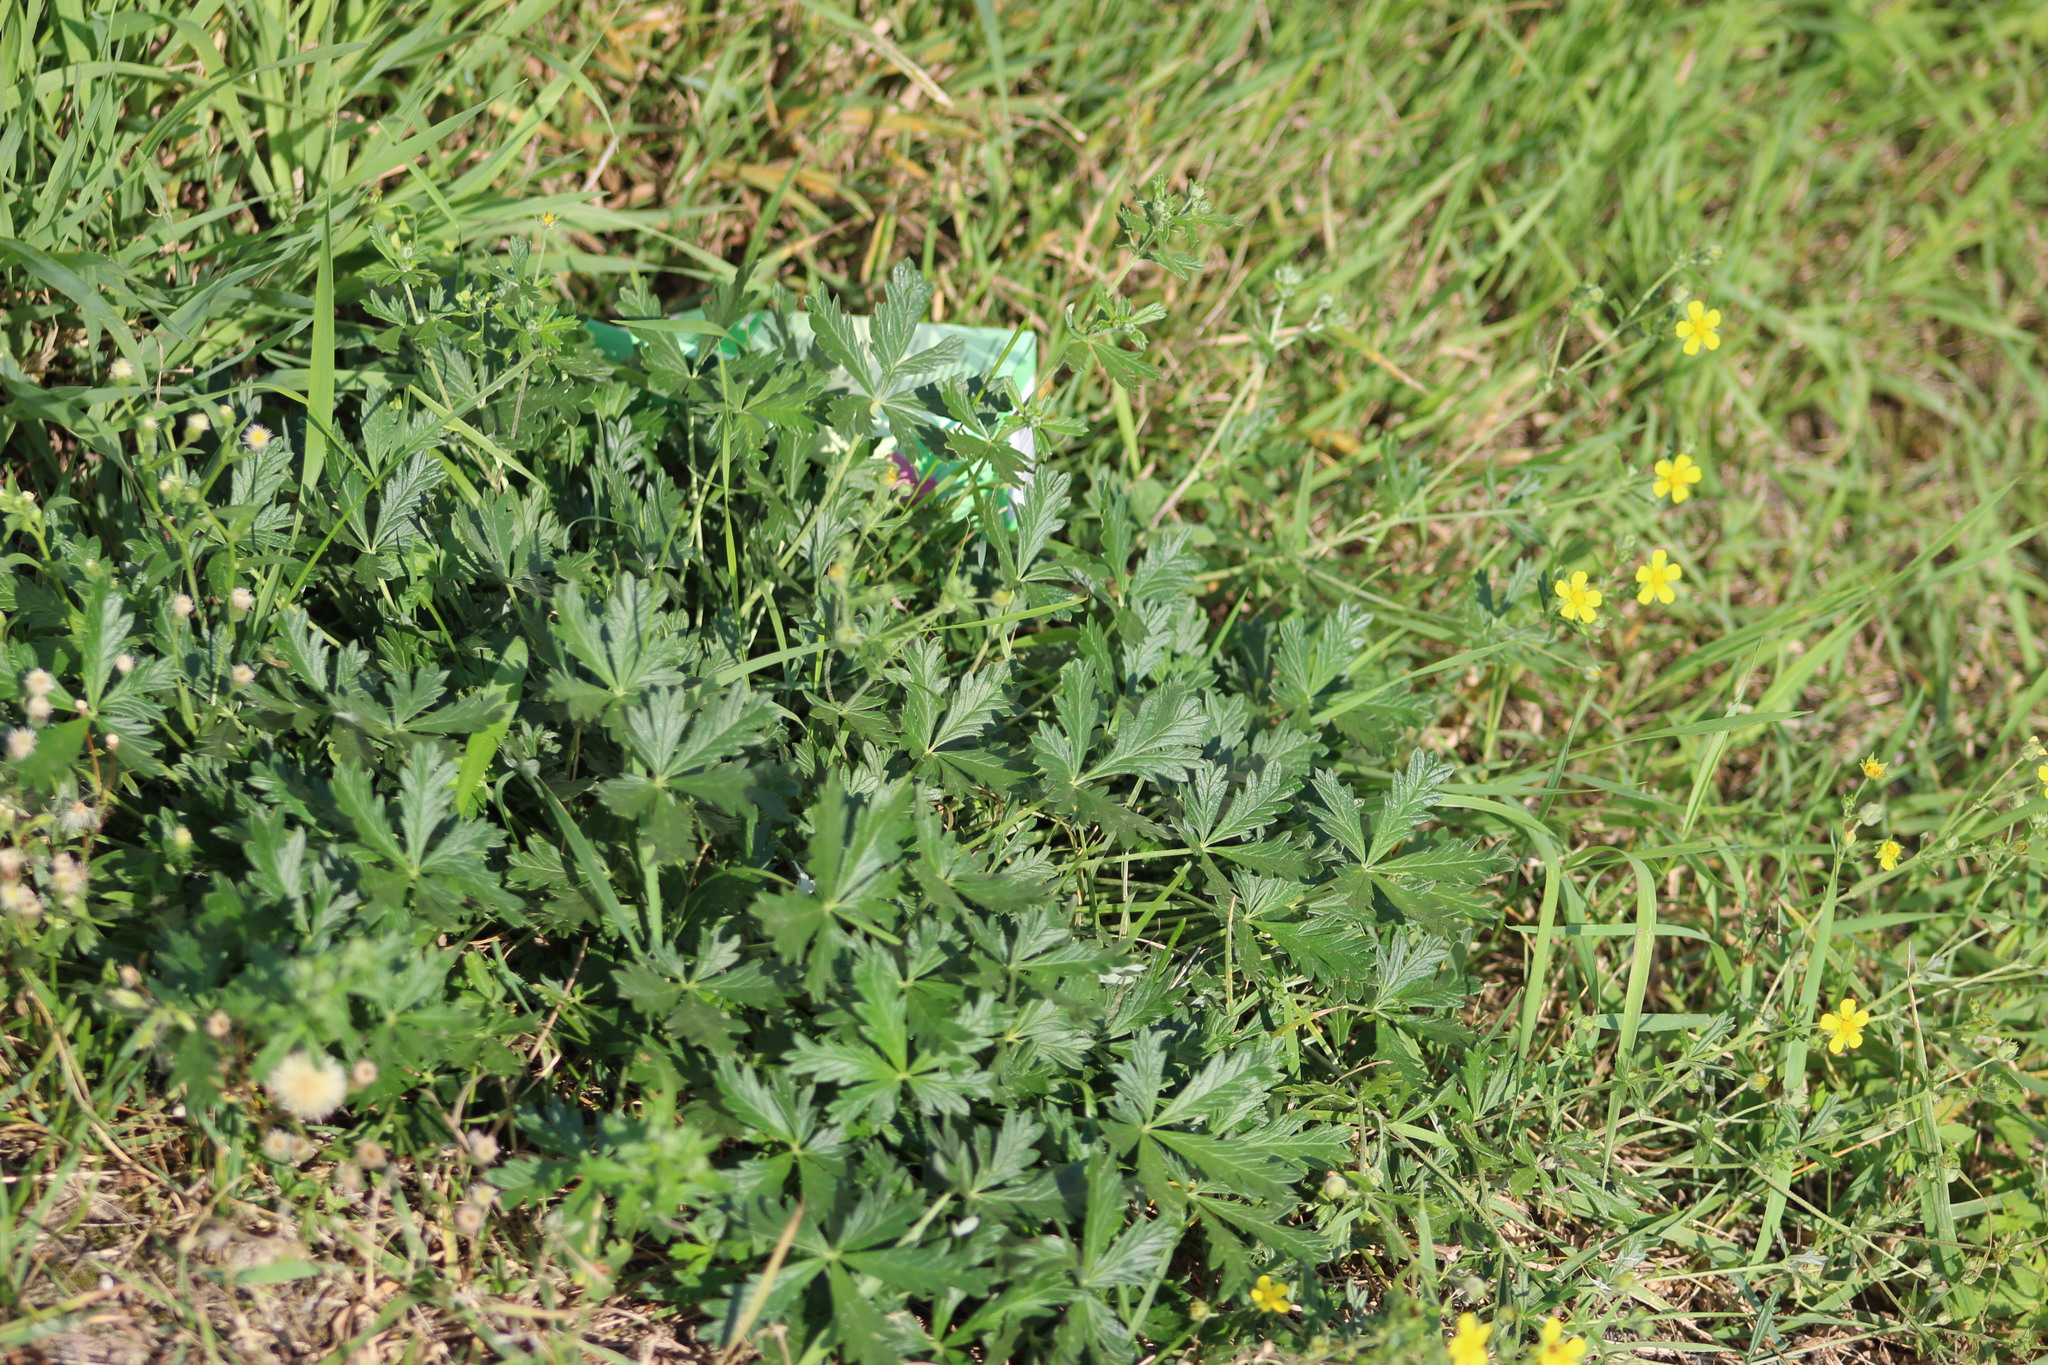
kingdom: Plantae
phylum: Tracheophyta
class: Magnoliopsida
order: Rosales
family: Rosaceae
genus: Potentilla
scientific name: Potentilla argentea
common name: Hoary cinquefoil
